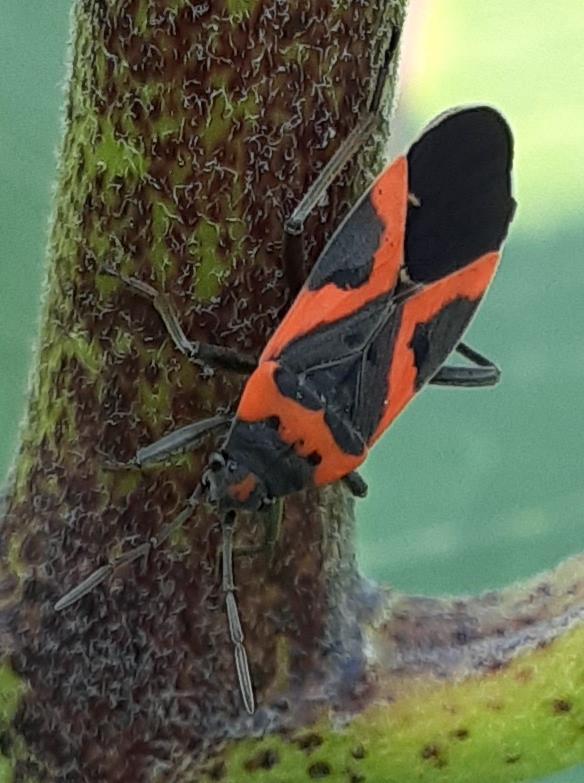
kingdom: Animalia
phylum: Arthropoda
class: Insecta
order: Hemiptera
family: Lygaeidae
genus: Lygaeus
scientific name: Lygaeus kalmii
